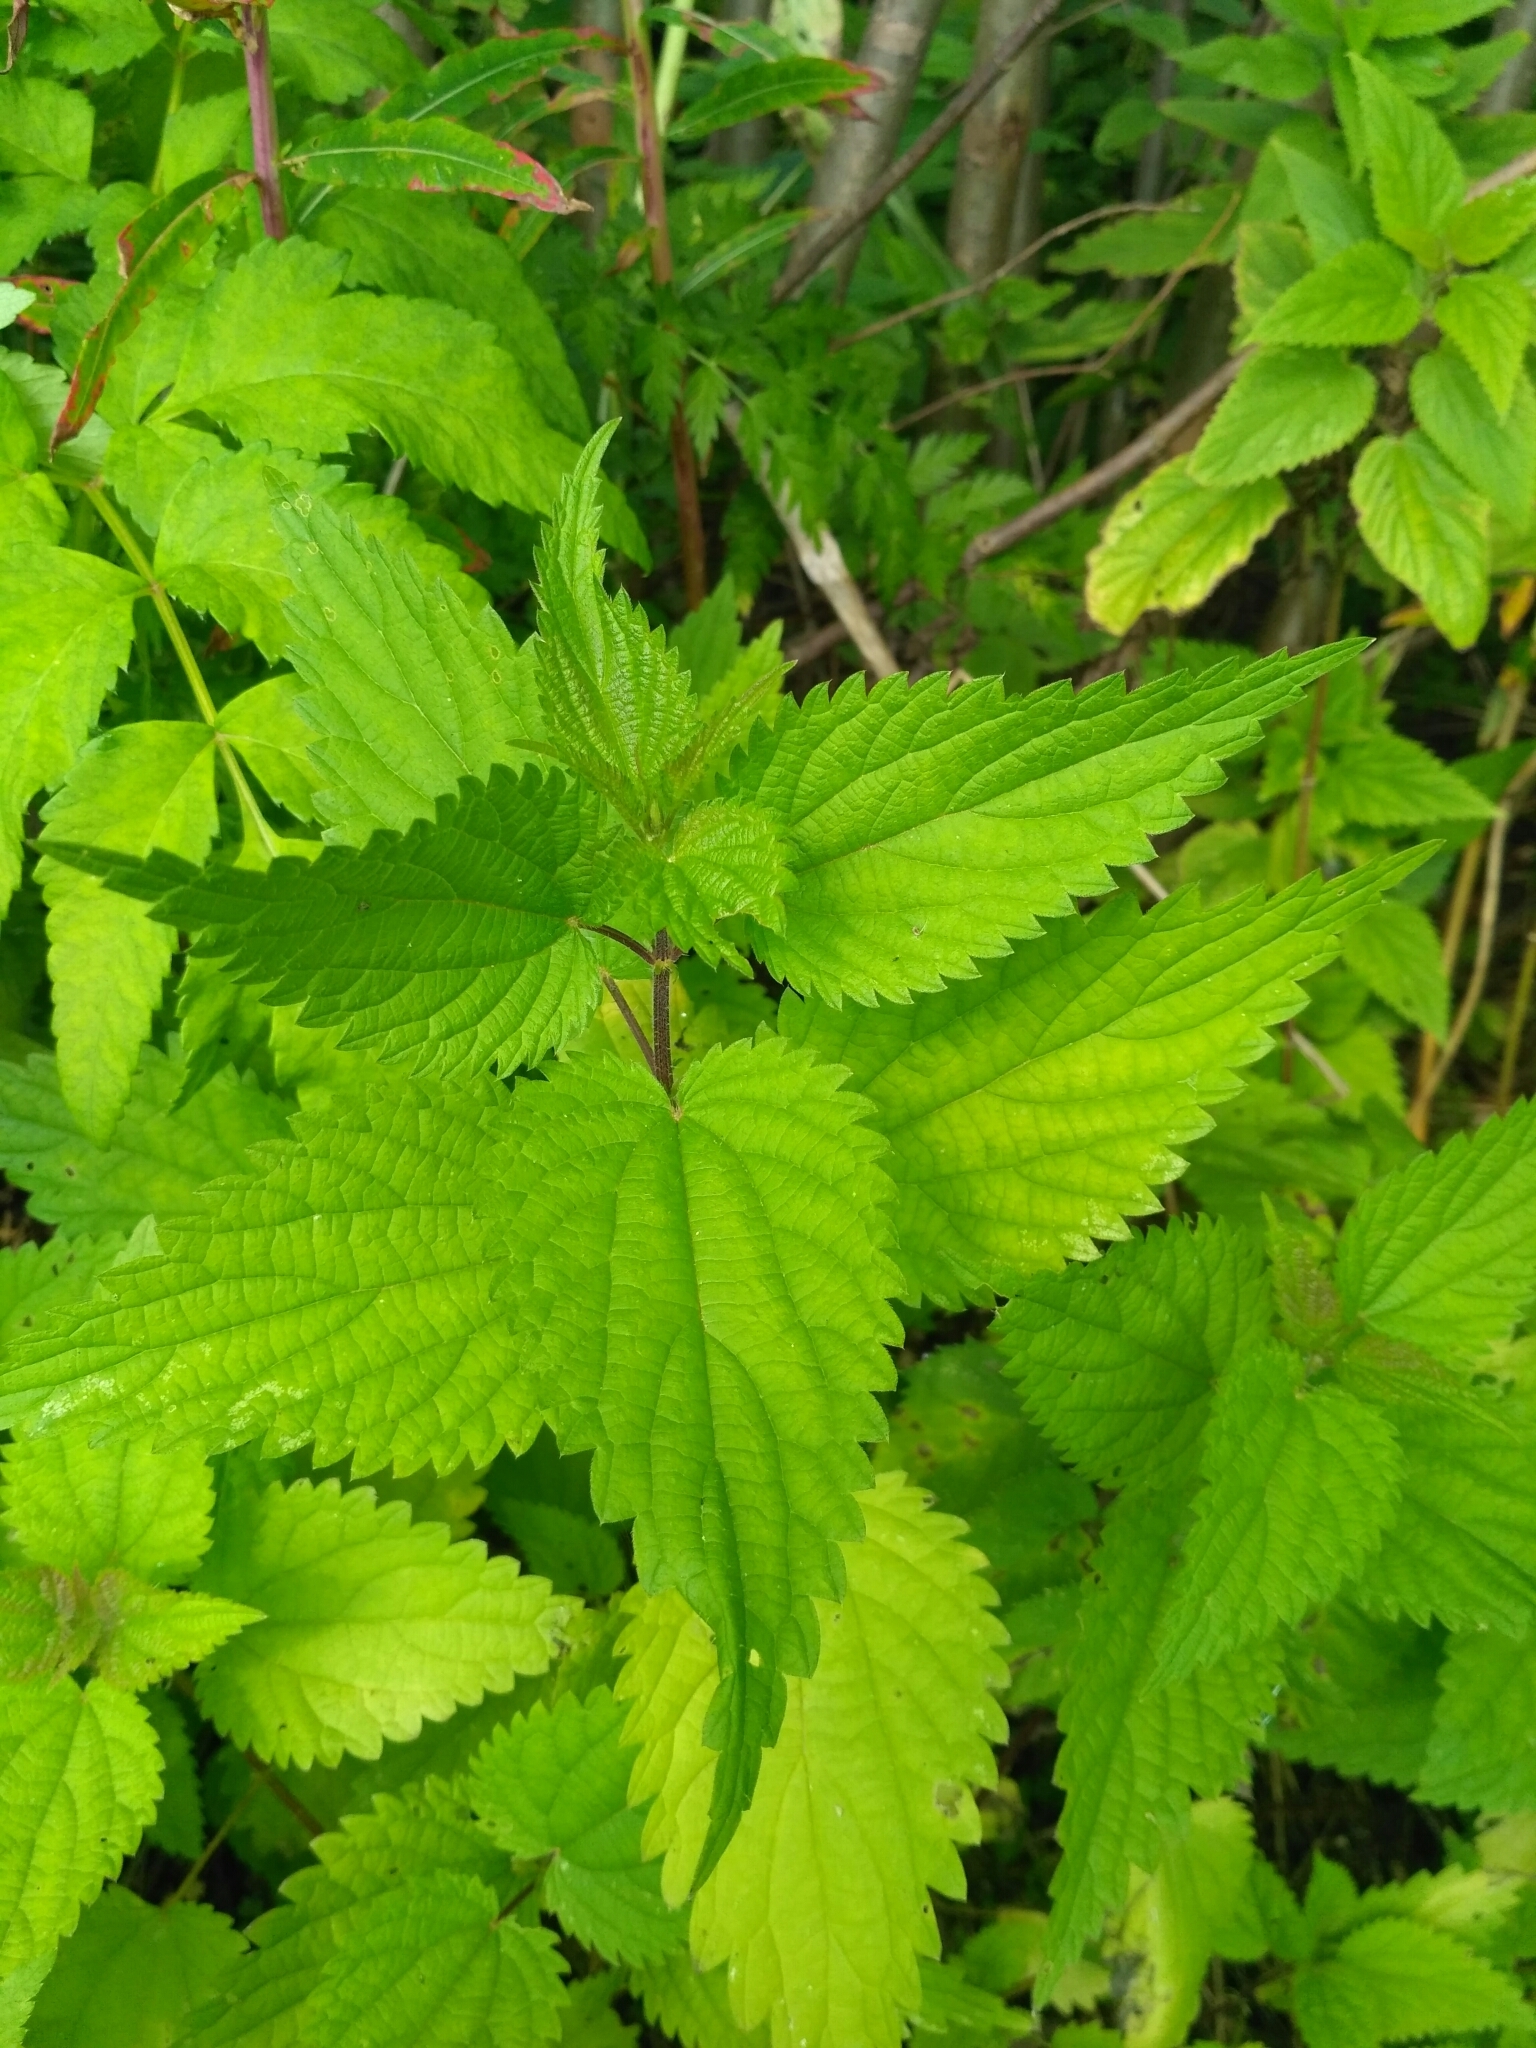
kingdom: Plantae
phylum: Tracheophyta
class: Magnoliopsida
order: Rosales
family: Urticaceae
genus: Urtica
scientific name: Urtica dioica
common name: Common nettle
